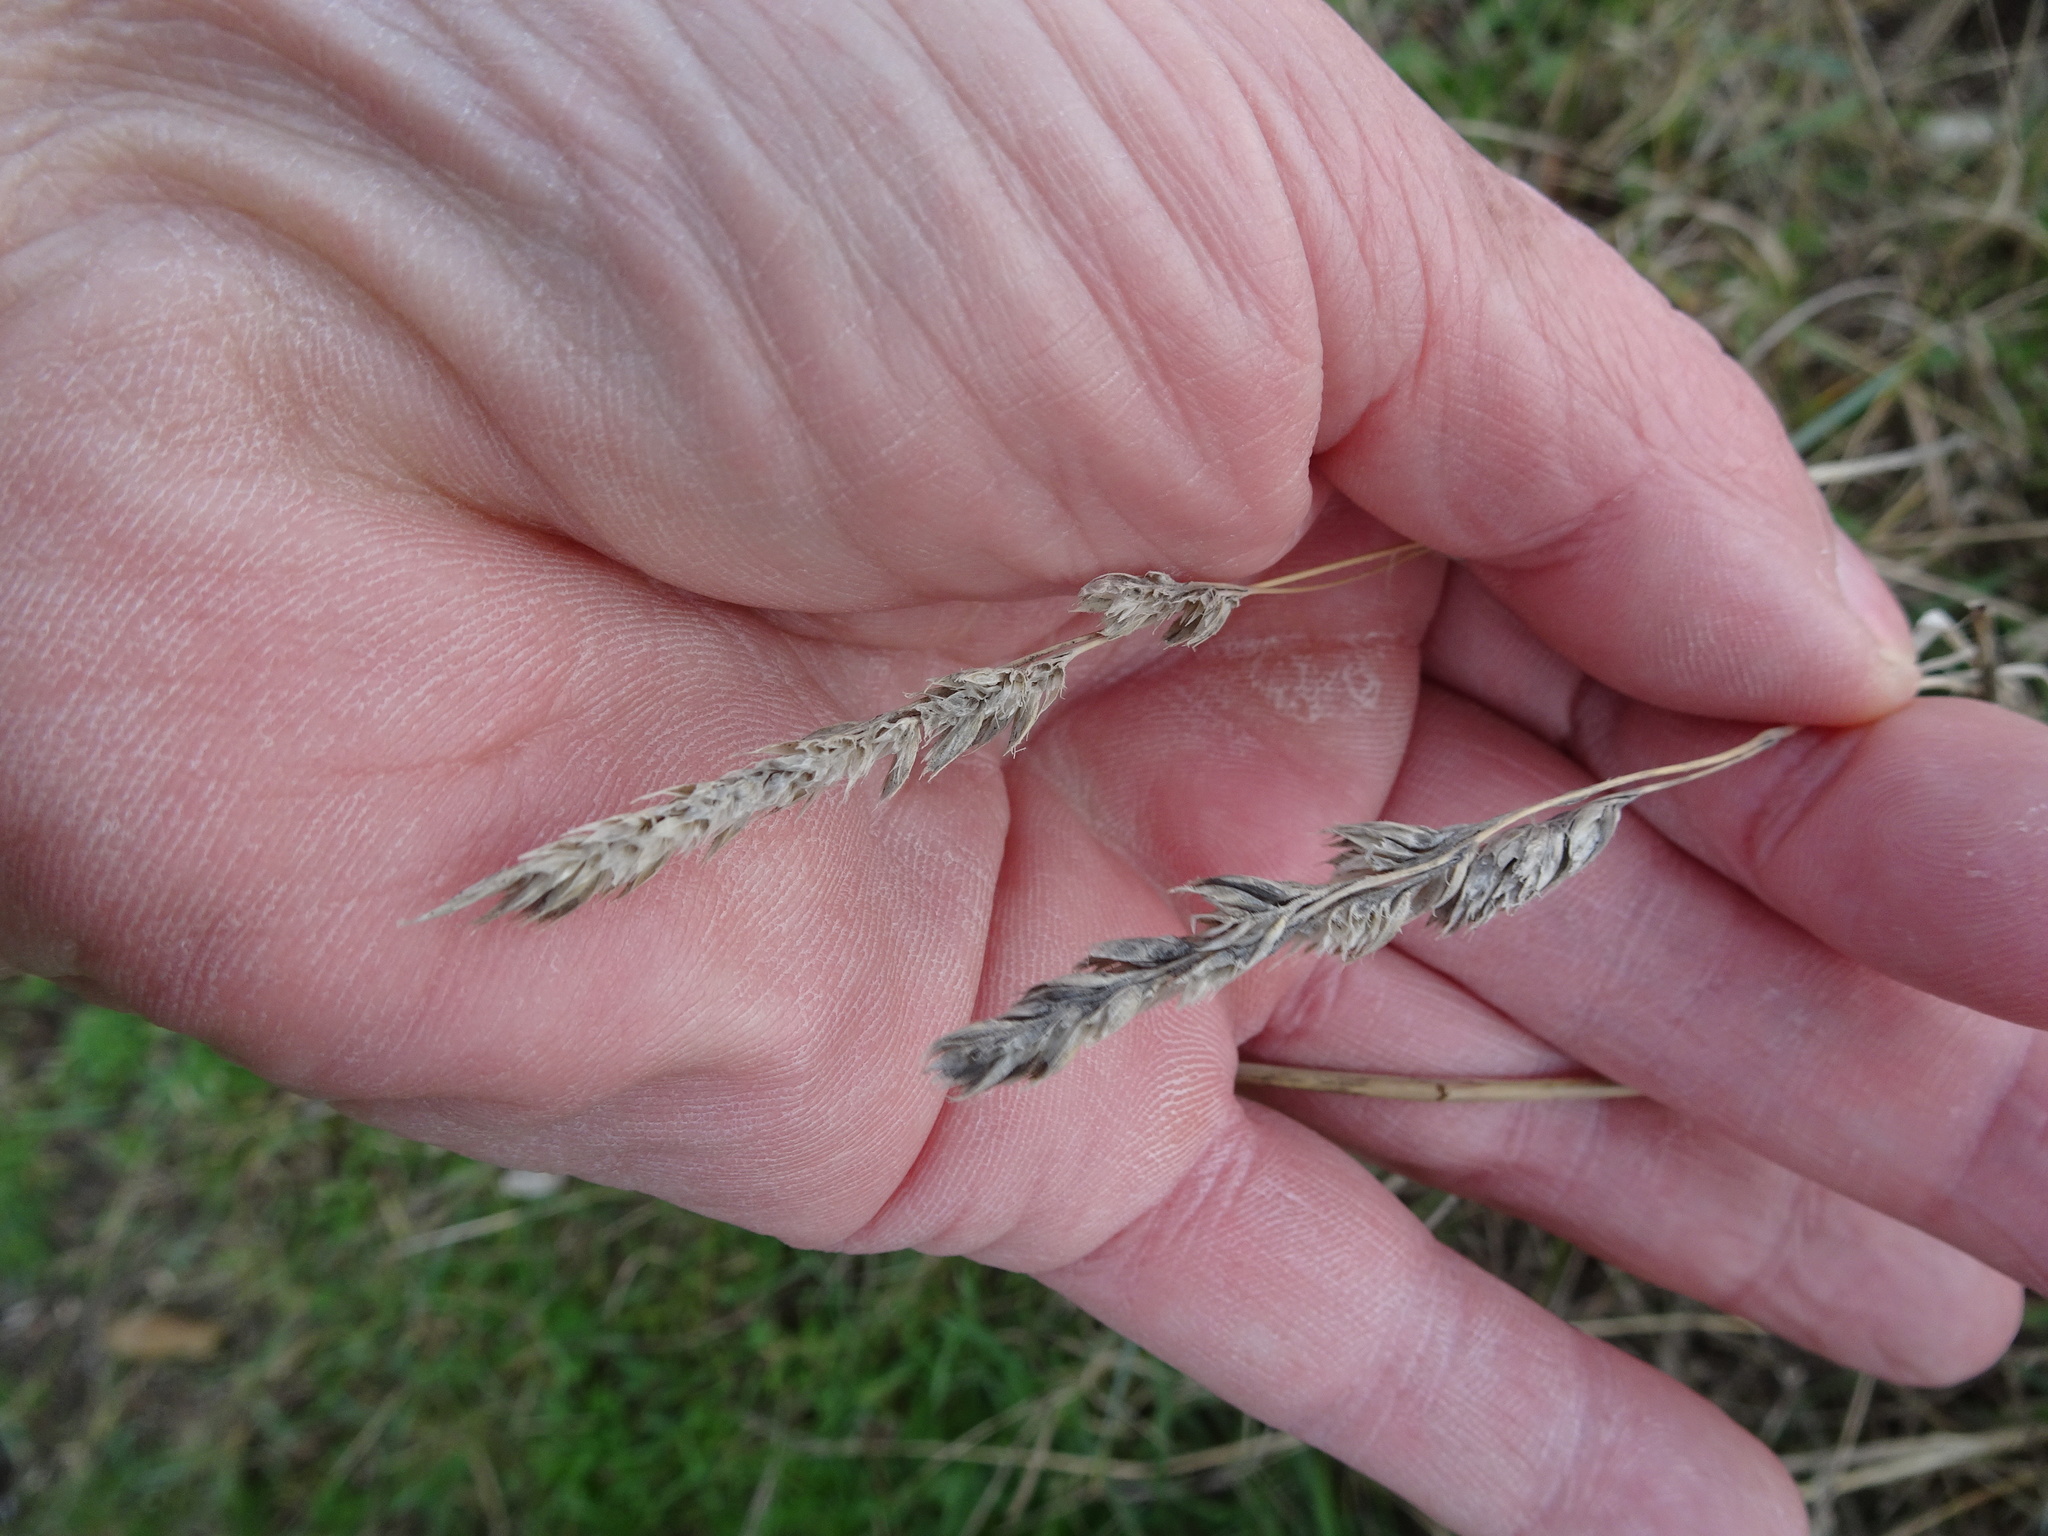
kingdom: Plantae
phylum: Tracheophyta
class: Liliopsida
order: Poales
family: Poaceae
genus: Dactylis
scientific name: Dactylis glomerata
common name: Orchardgrass
